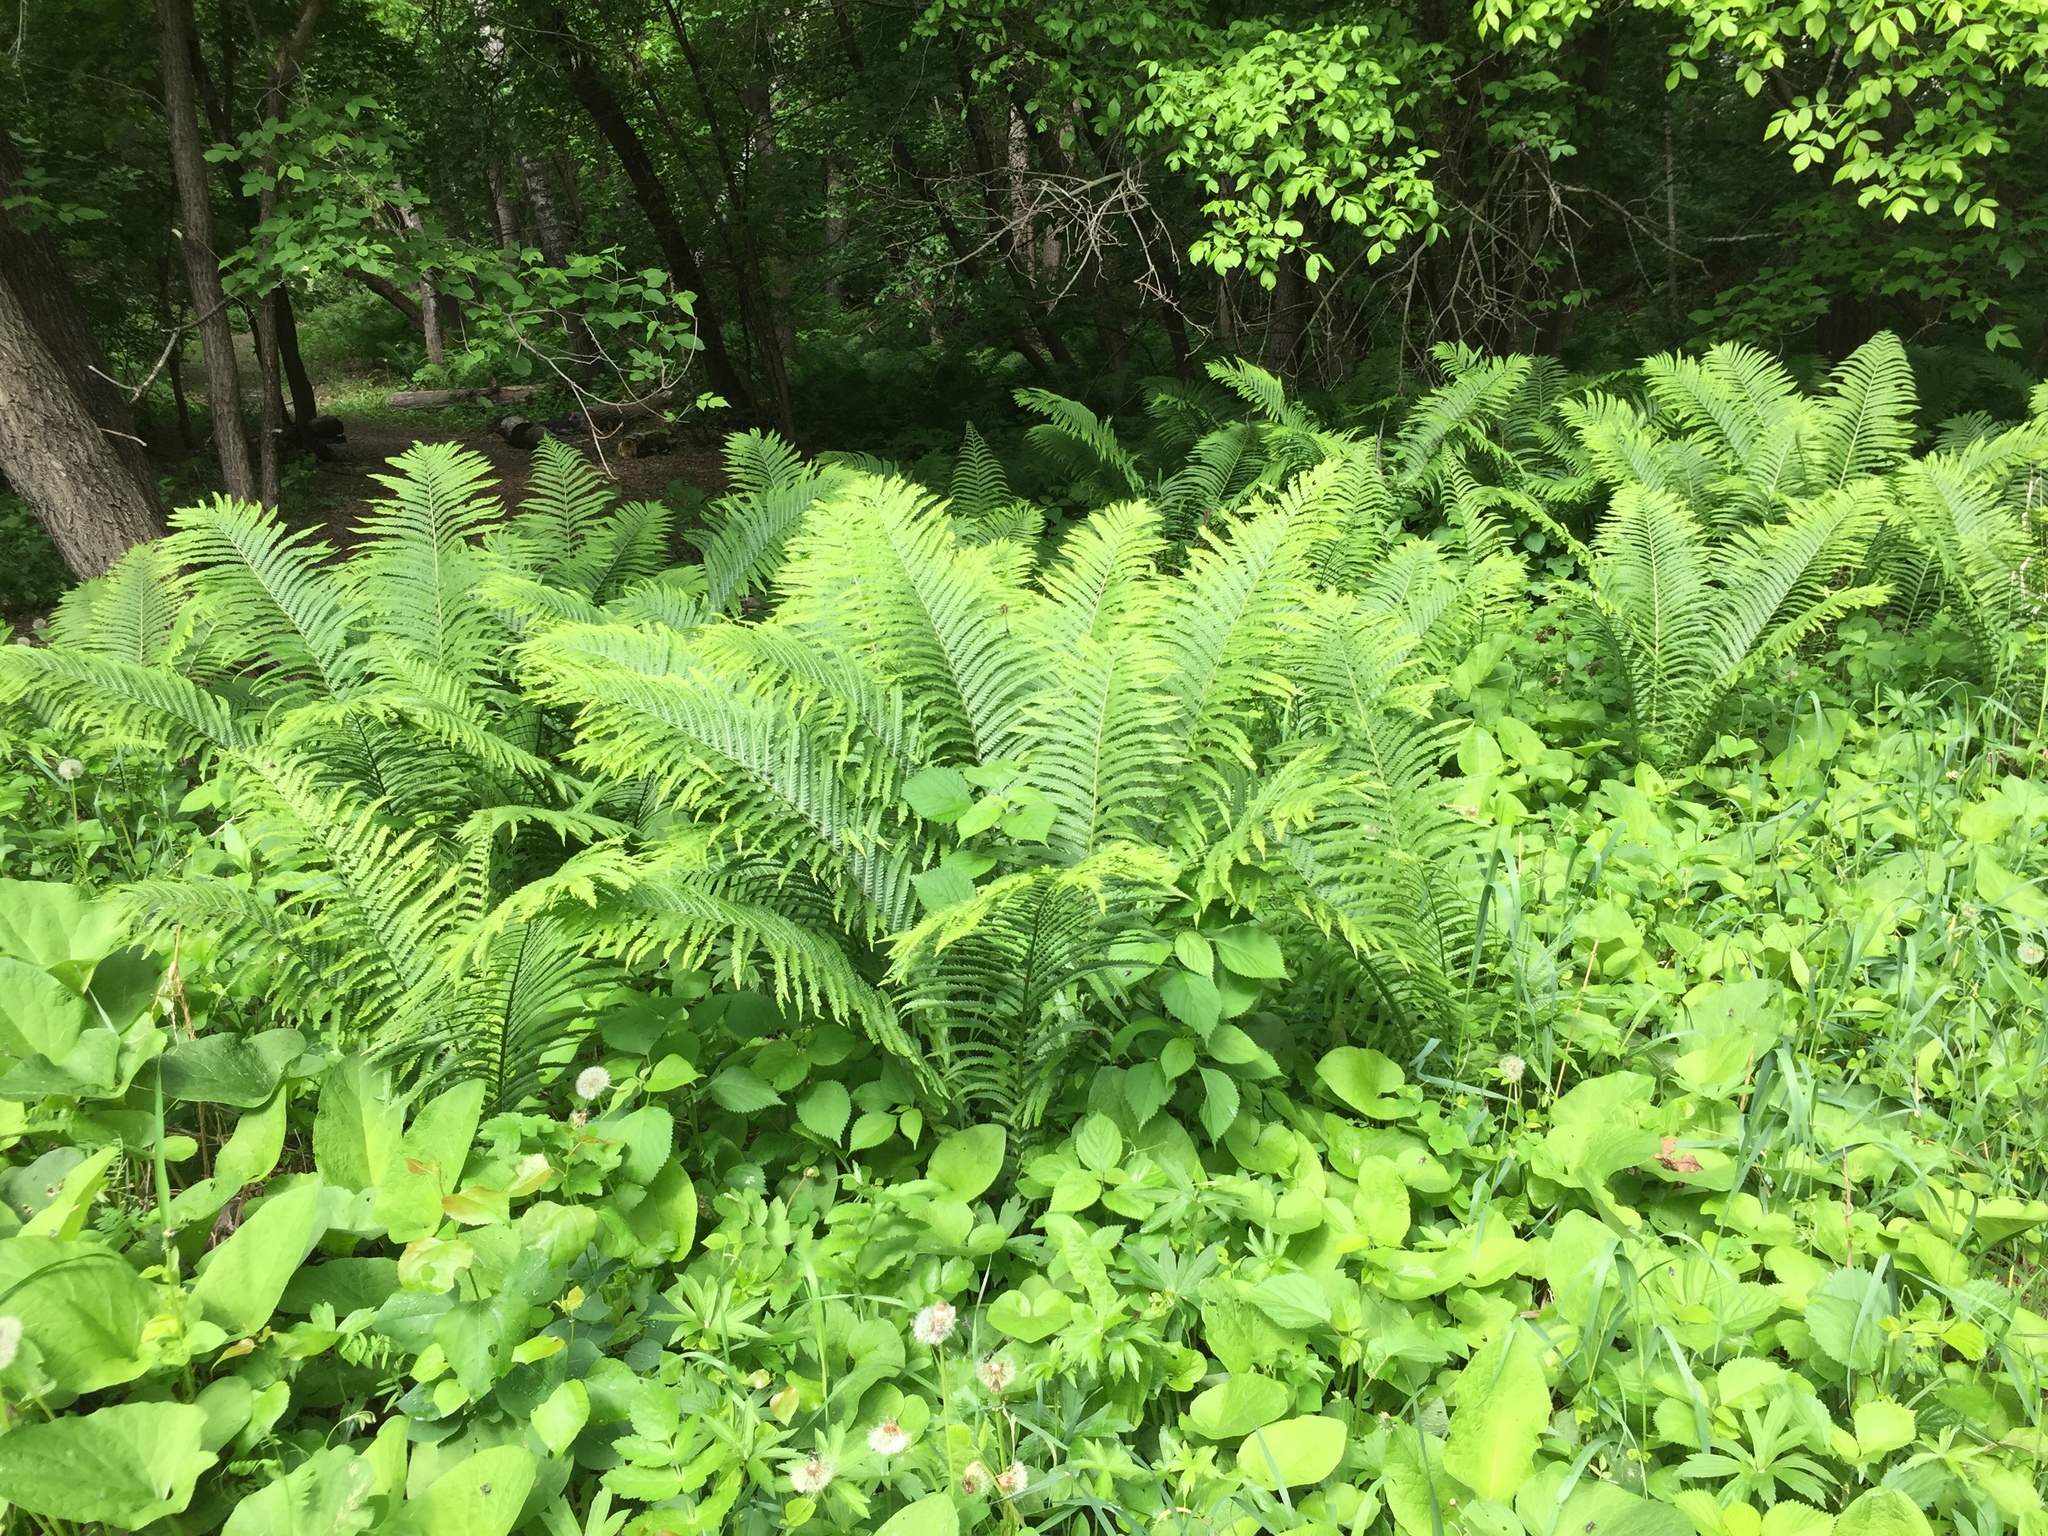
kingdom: Plantae
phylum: Tracheophyta
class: Polypodiopsida
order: Polypodiales
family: Onocleaceae
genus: Matteuccia
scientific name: Matteuccia struthiopteris
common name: Ostrich fern
